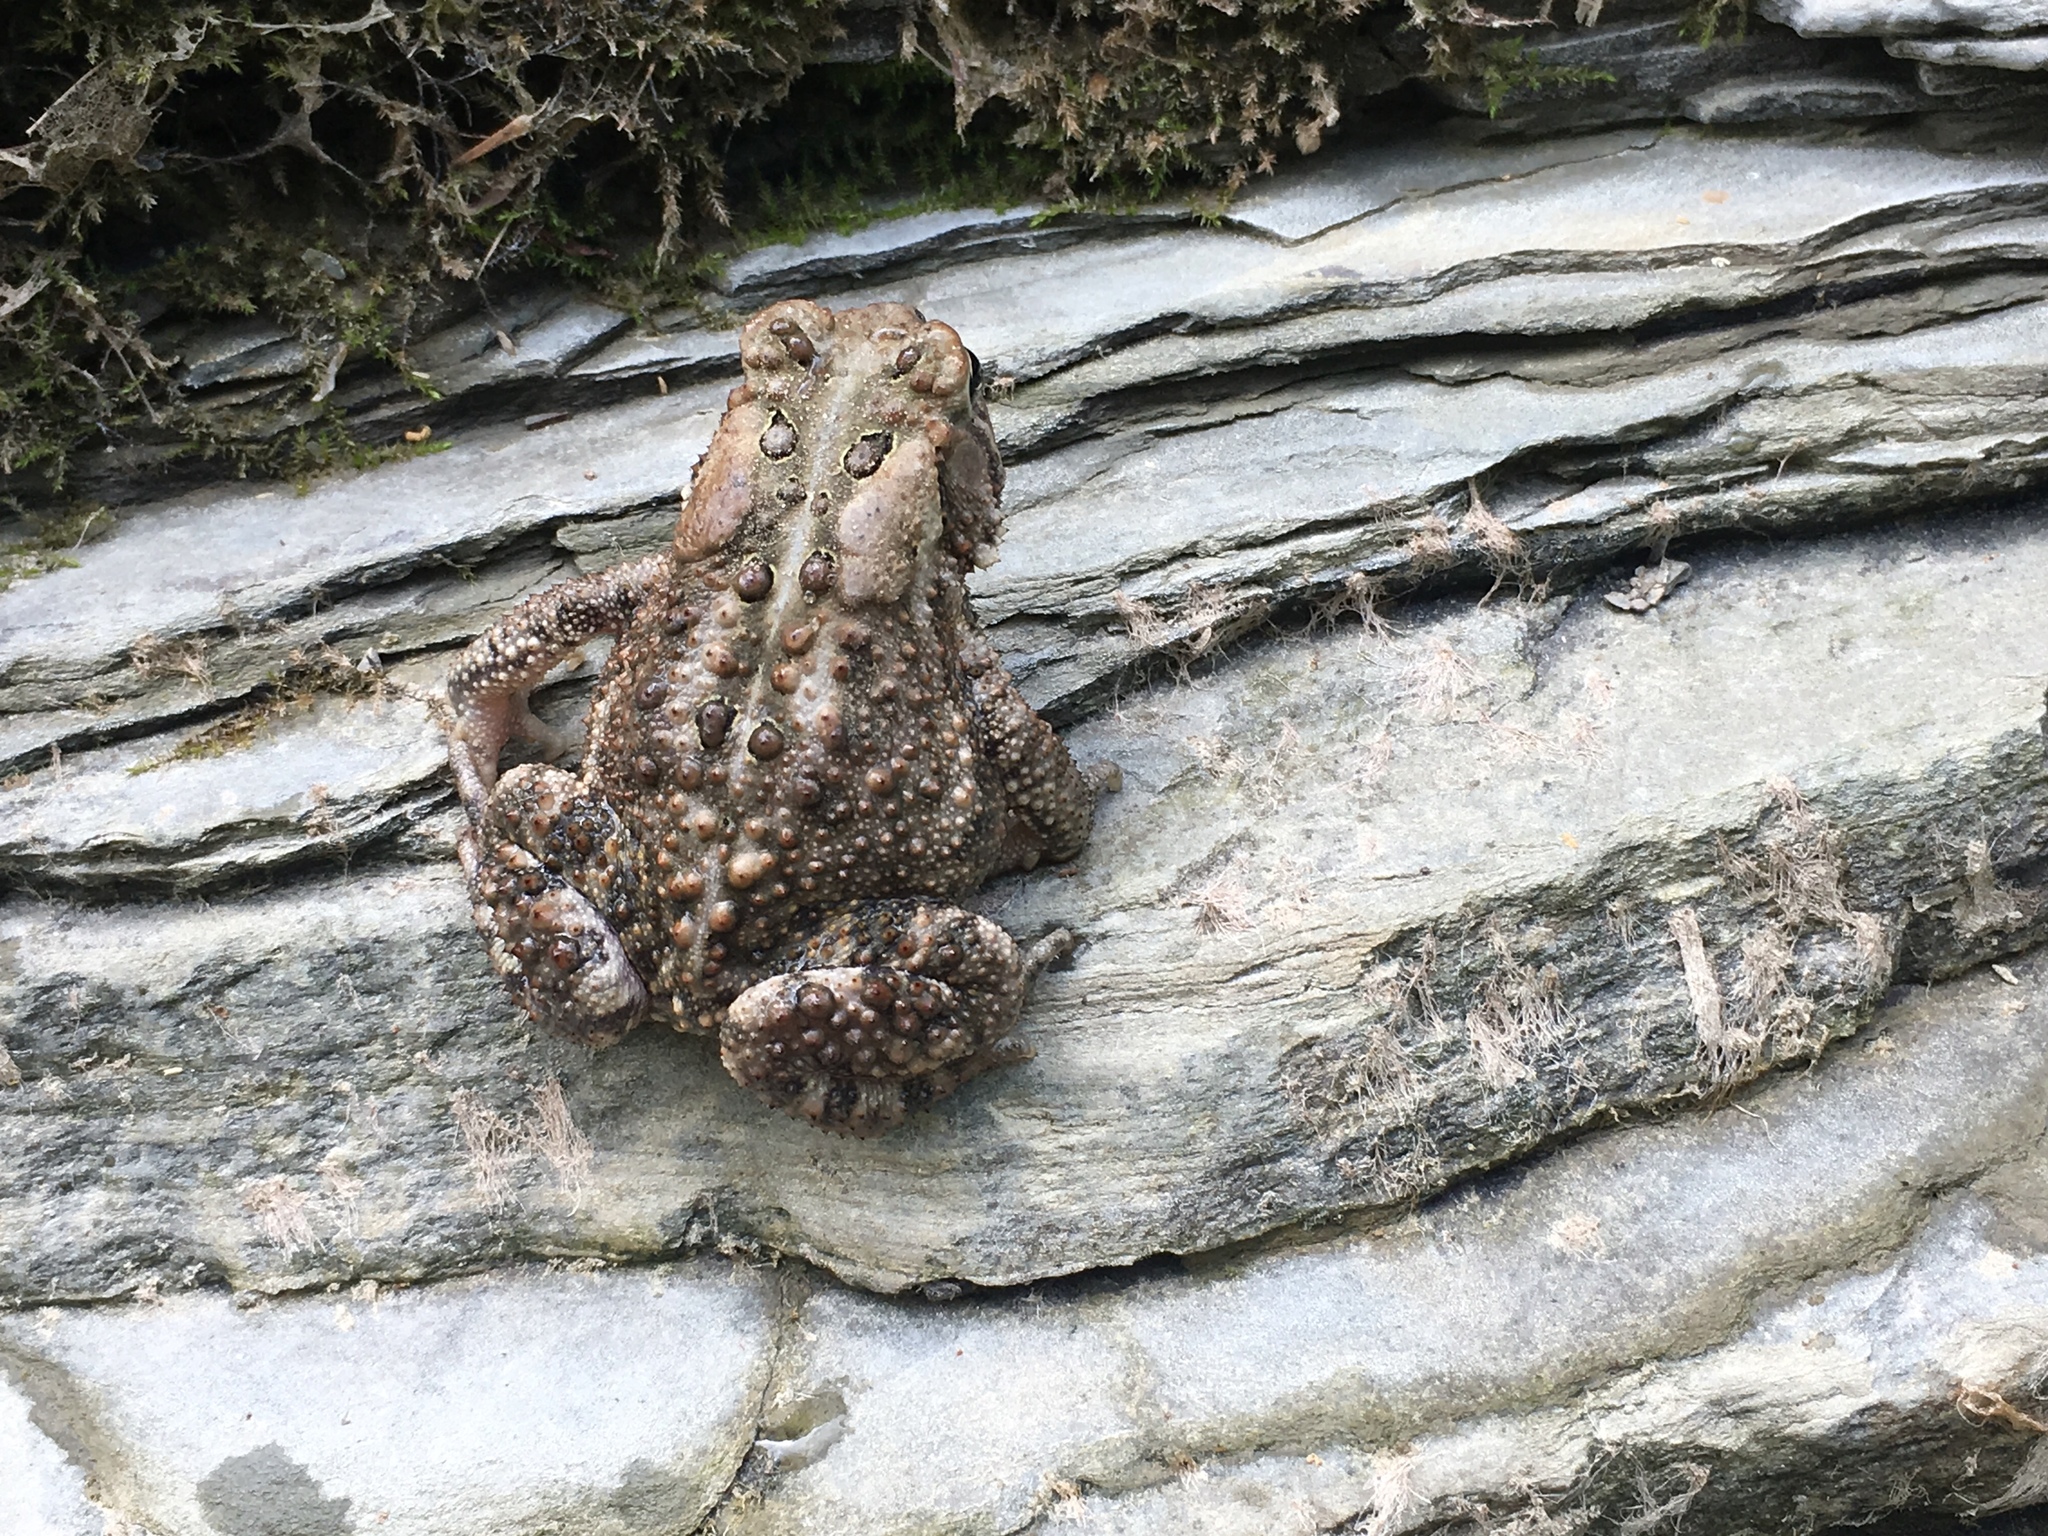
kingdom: Animalia
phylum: Chordata
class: Amphibia
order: Anura
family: Bufonidae
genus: Anaxyrus
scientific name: Anaxyrus americanus
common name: American toad
